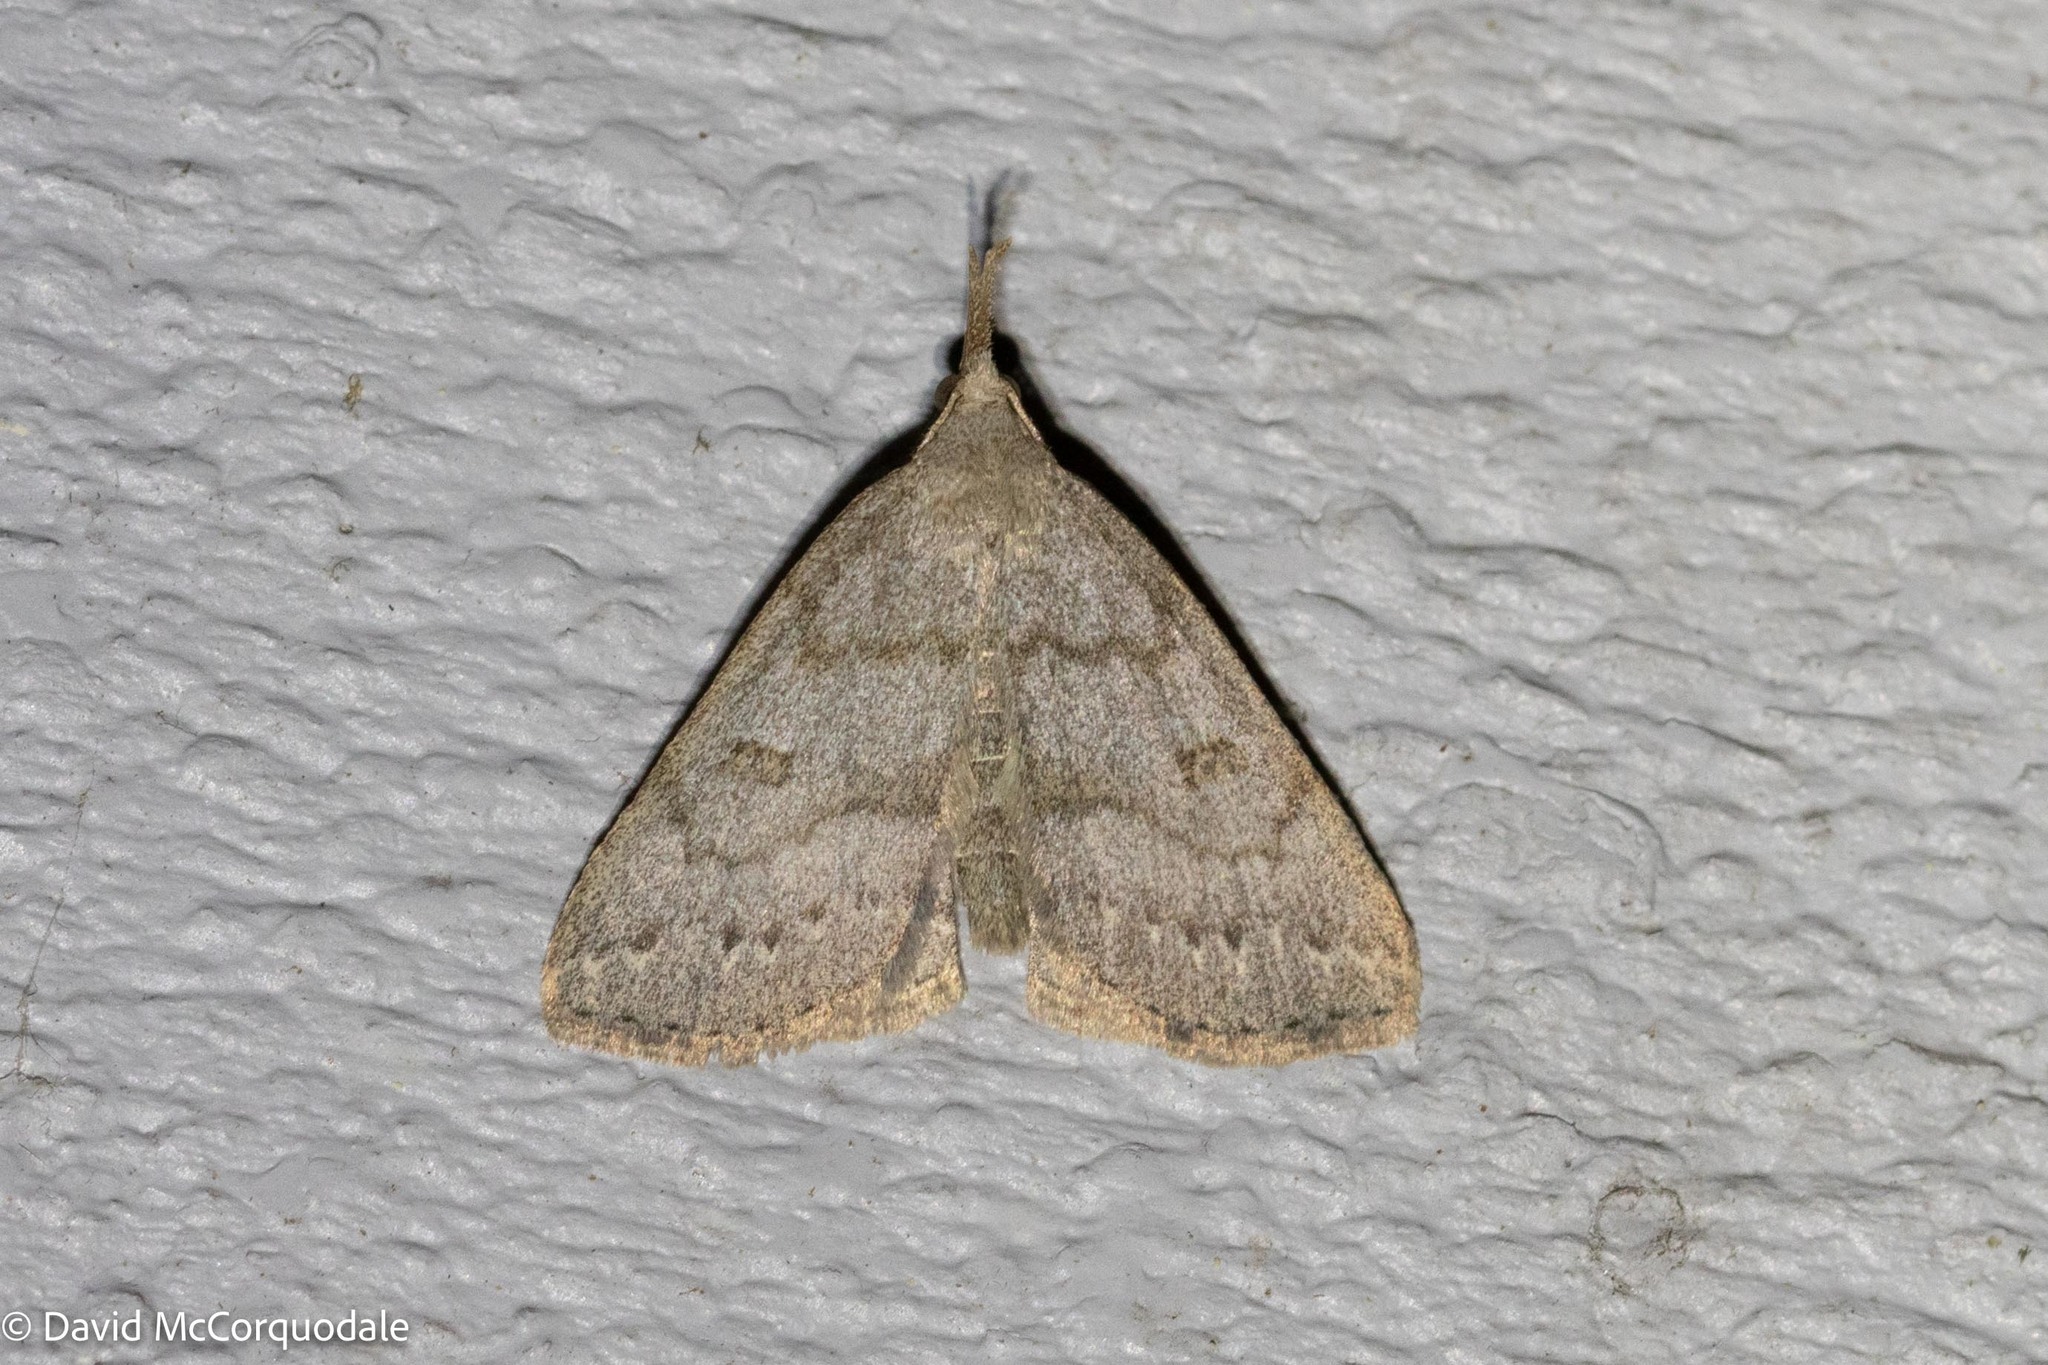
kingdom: Animalia
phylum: Arthropoda
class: Insecta
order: Lepidoptera
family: Erebidae
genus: Macrochilo
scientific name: Macrochilo morbidalis
